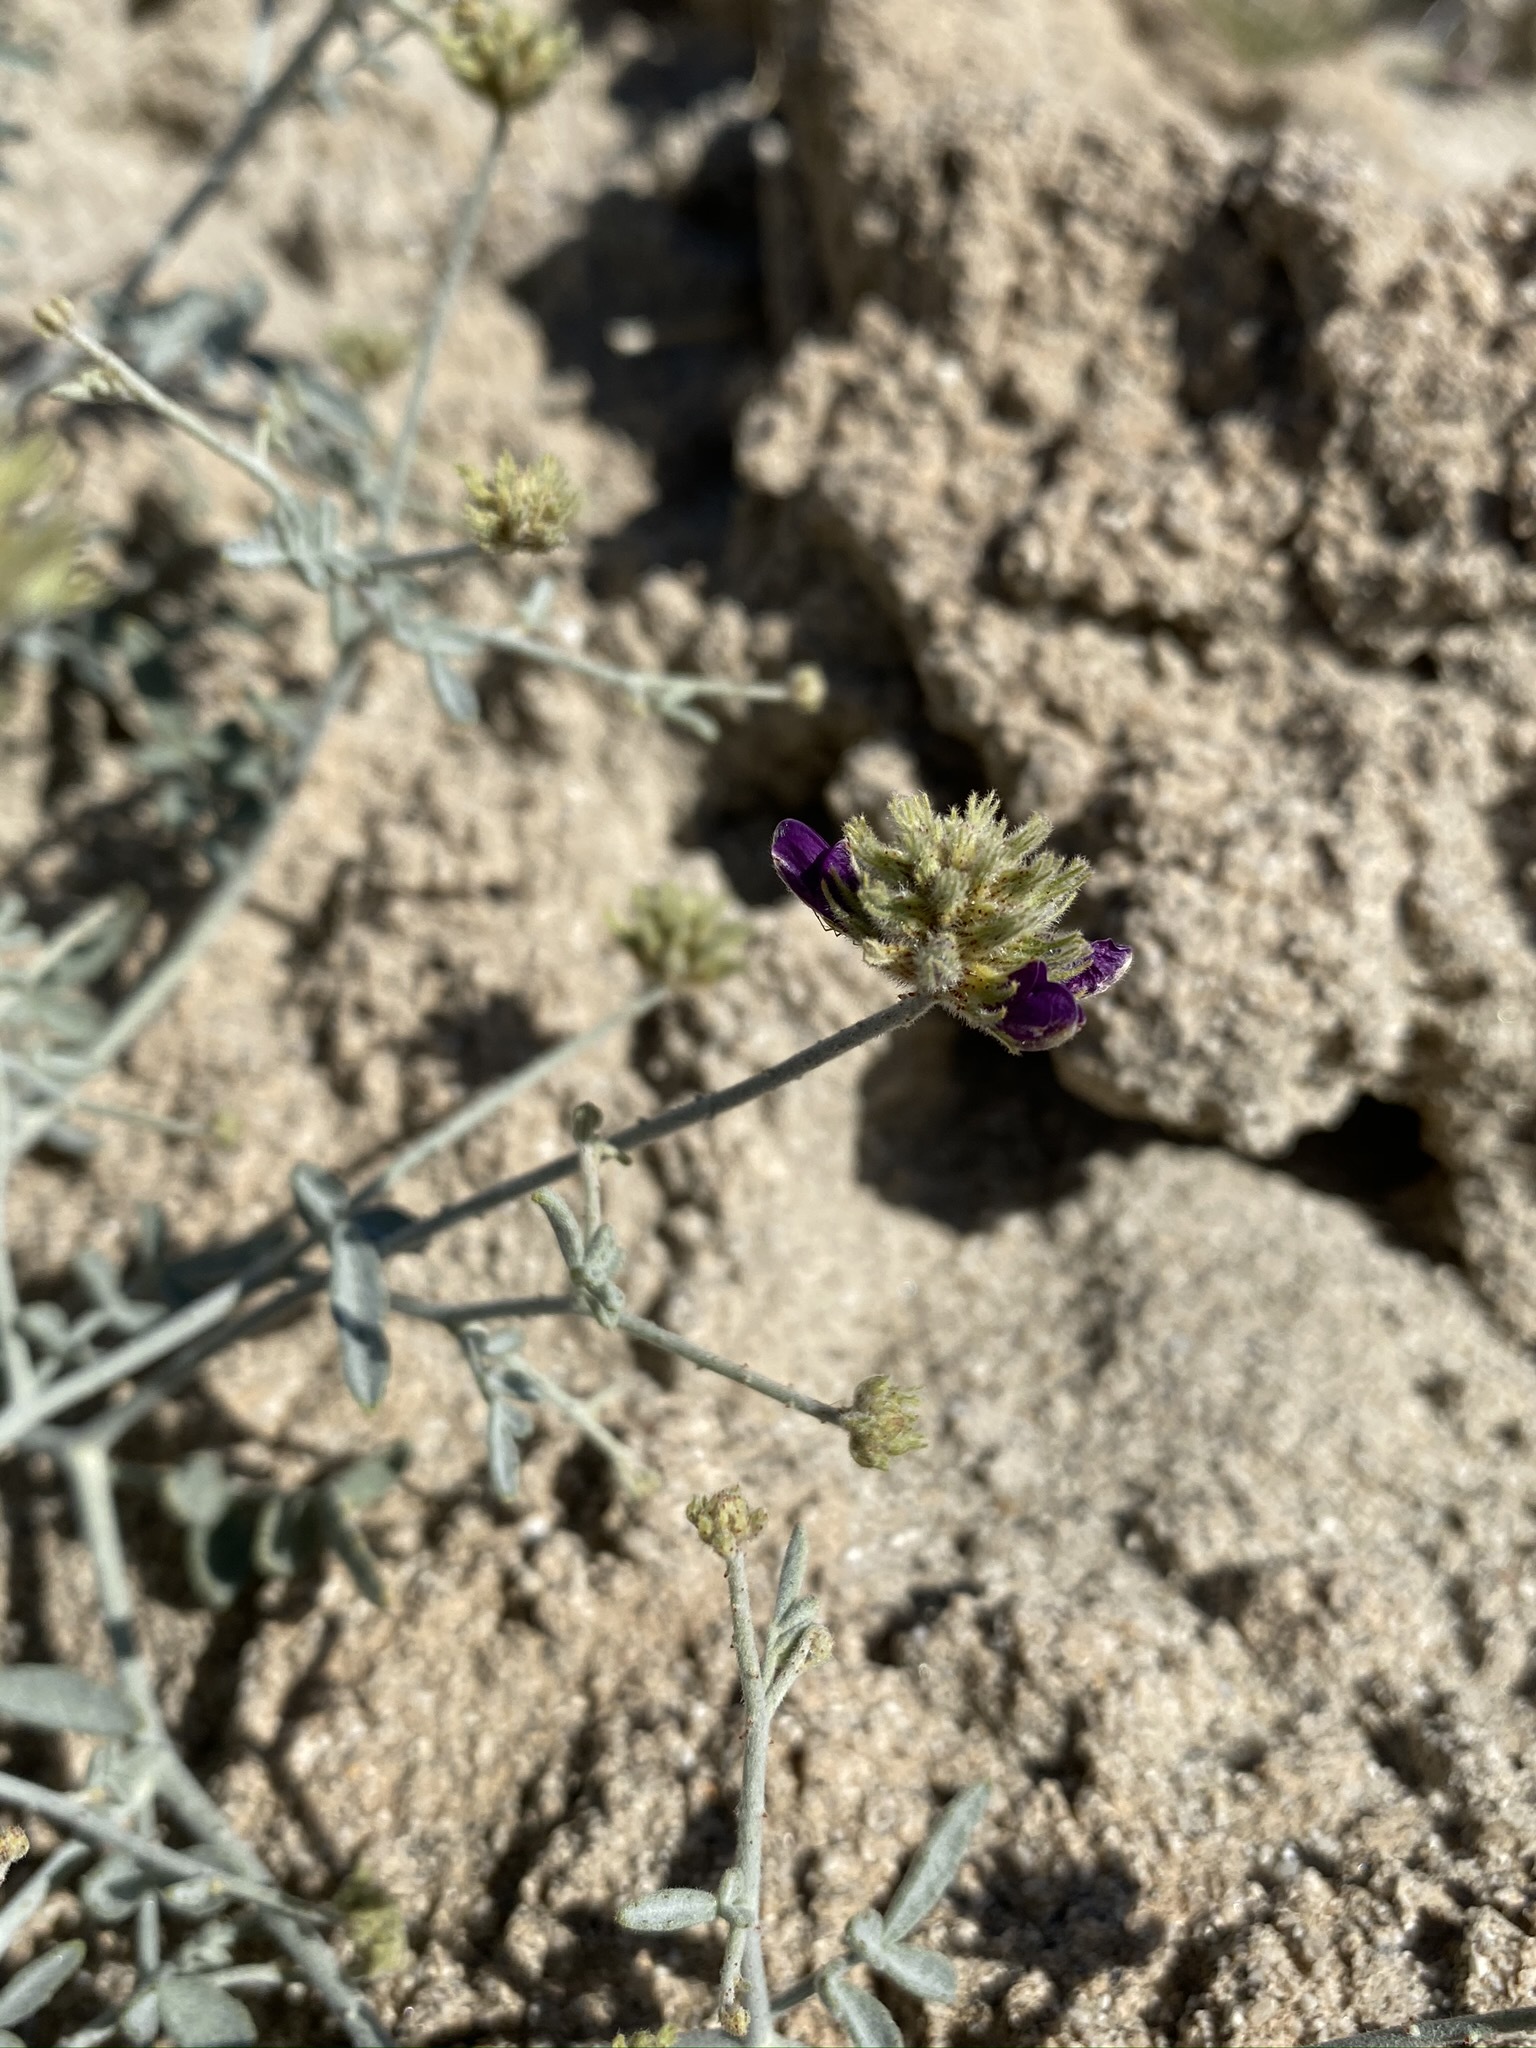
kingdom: Plantae
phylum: Tracheophyta
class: Magnoliopsida
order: Fabales
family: Fabaceae
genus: Psorothamnus
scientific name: Psorothamnus emoryi
